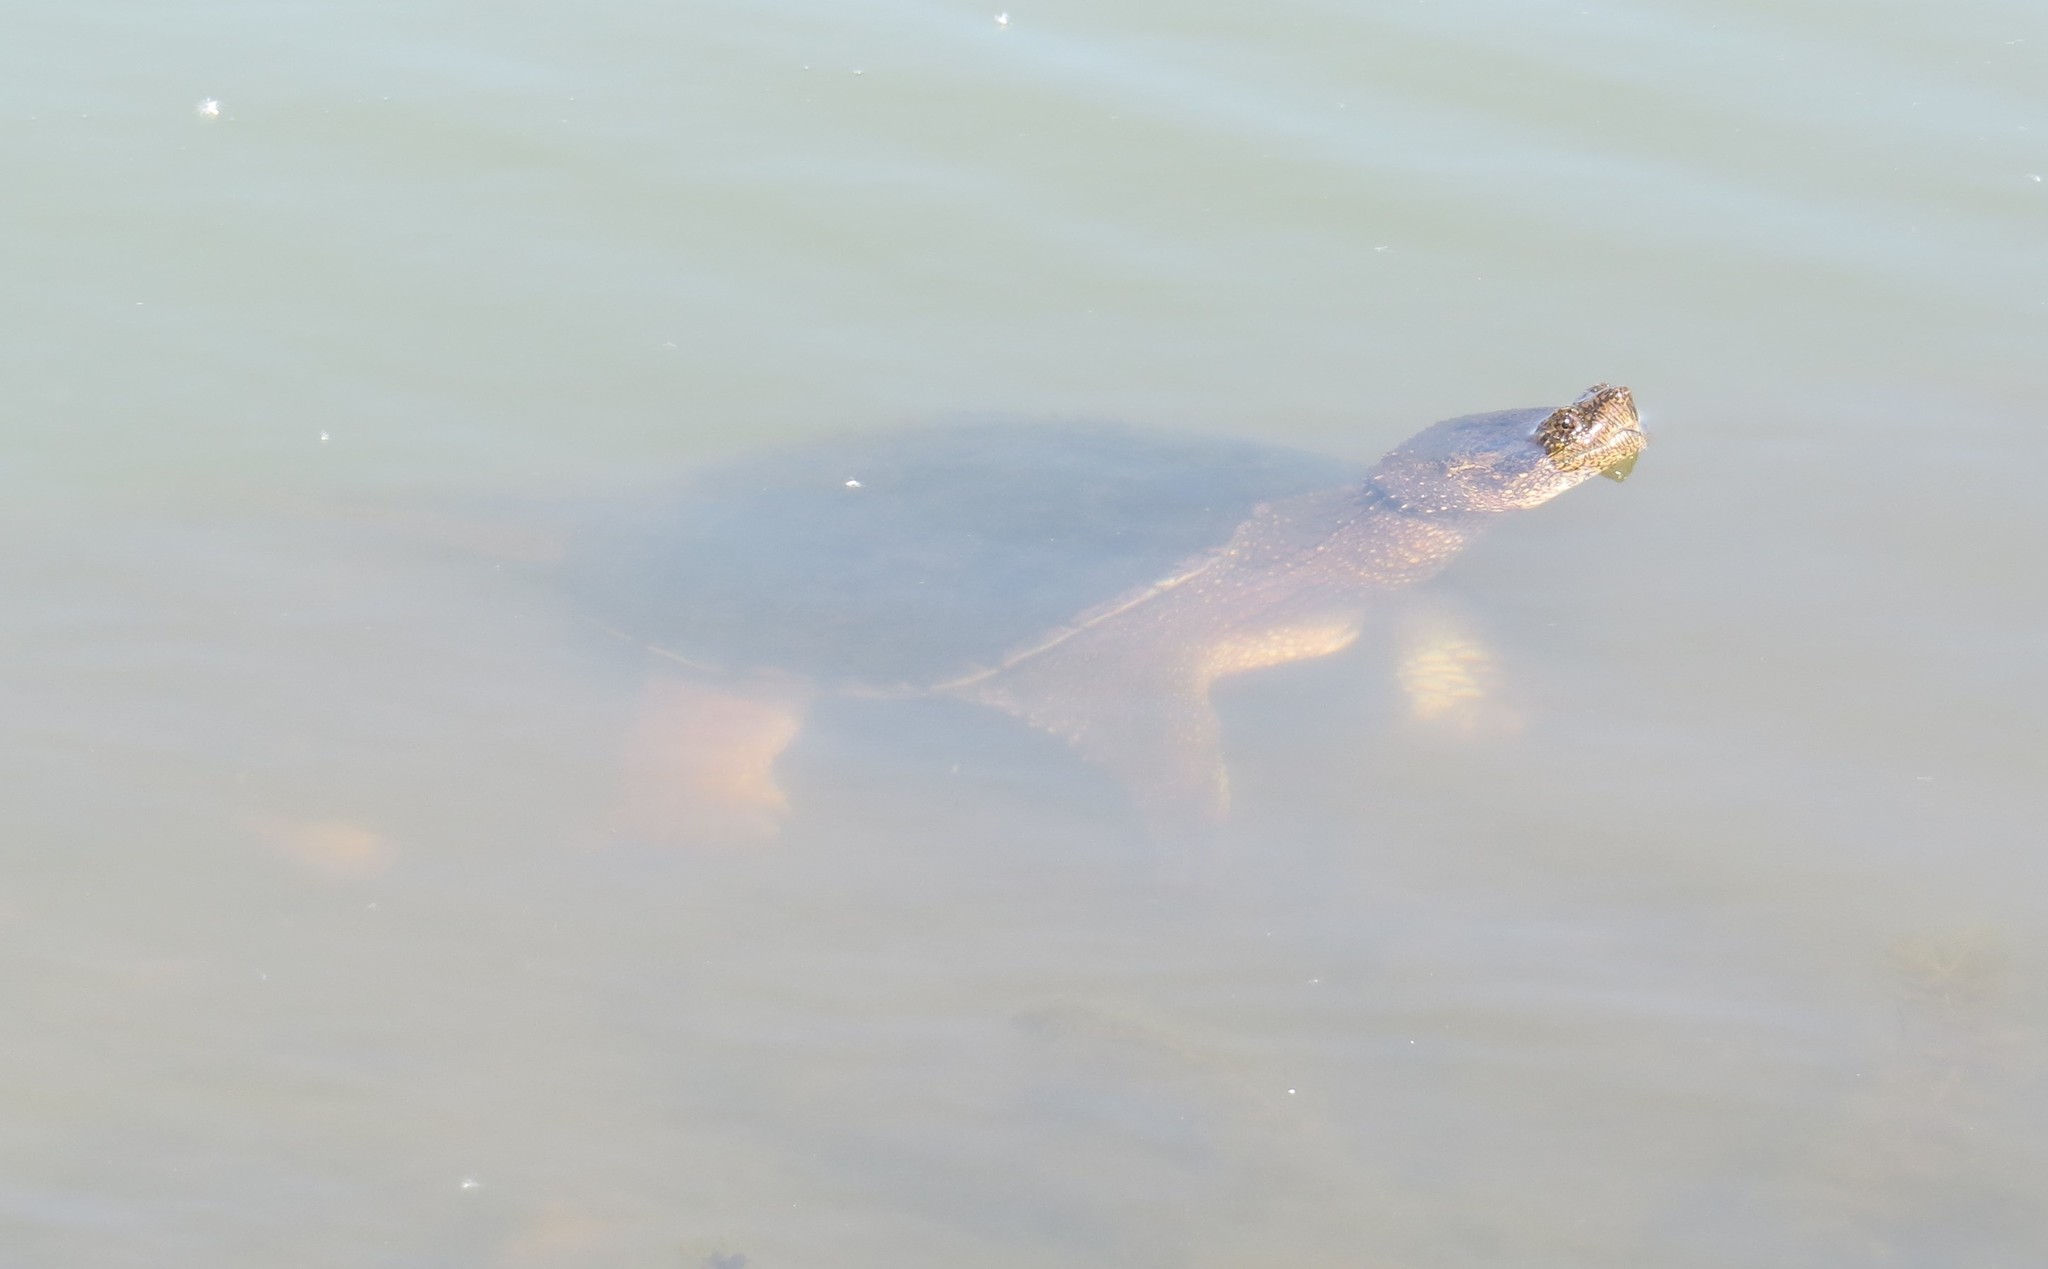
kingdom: Animalia
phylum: Chordata
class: Testudines
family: Chelydridae
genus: Chelydra
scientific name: Chelydra serpentina
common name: Common snapping turtle
